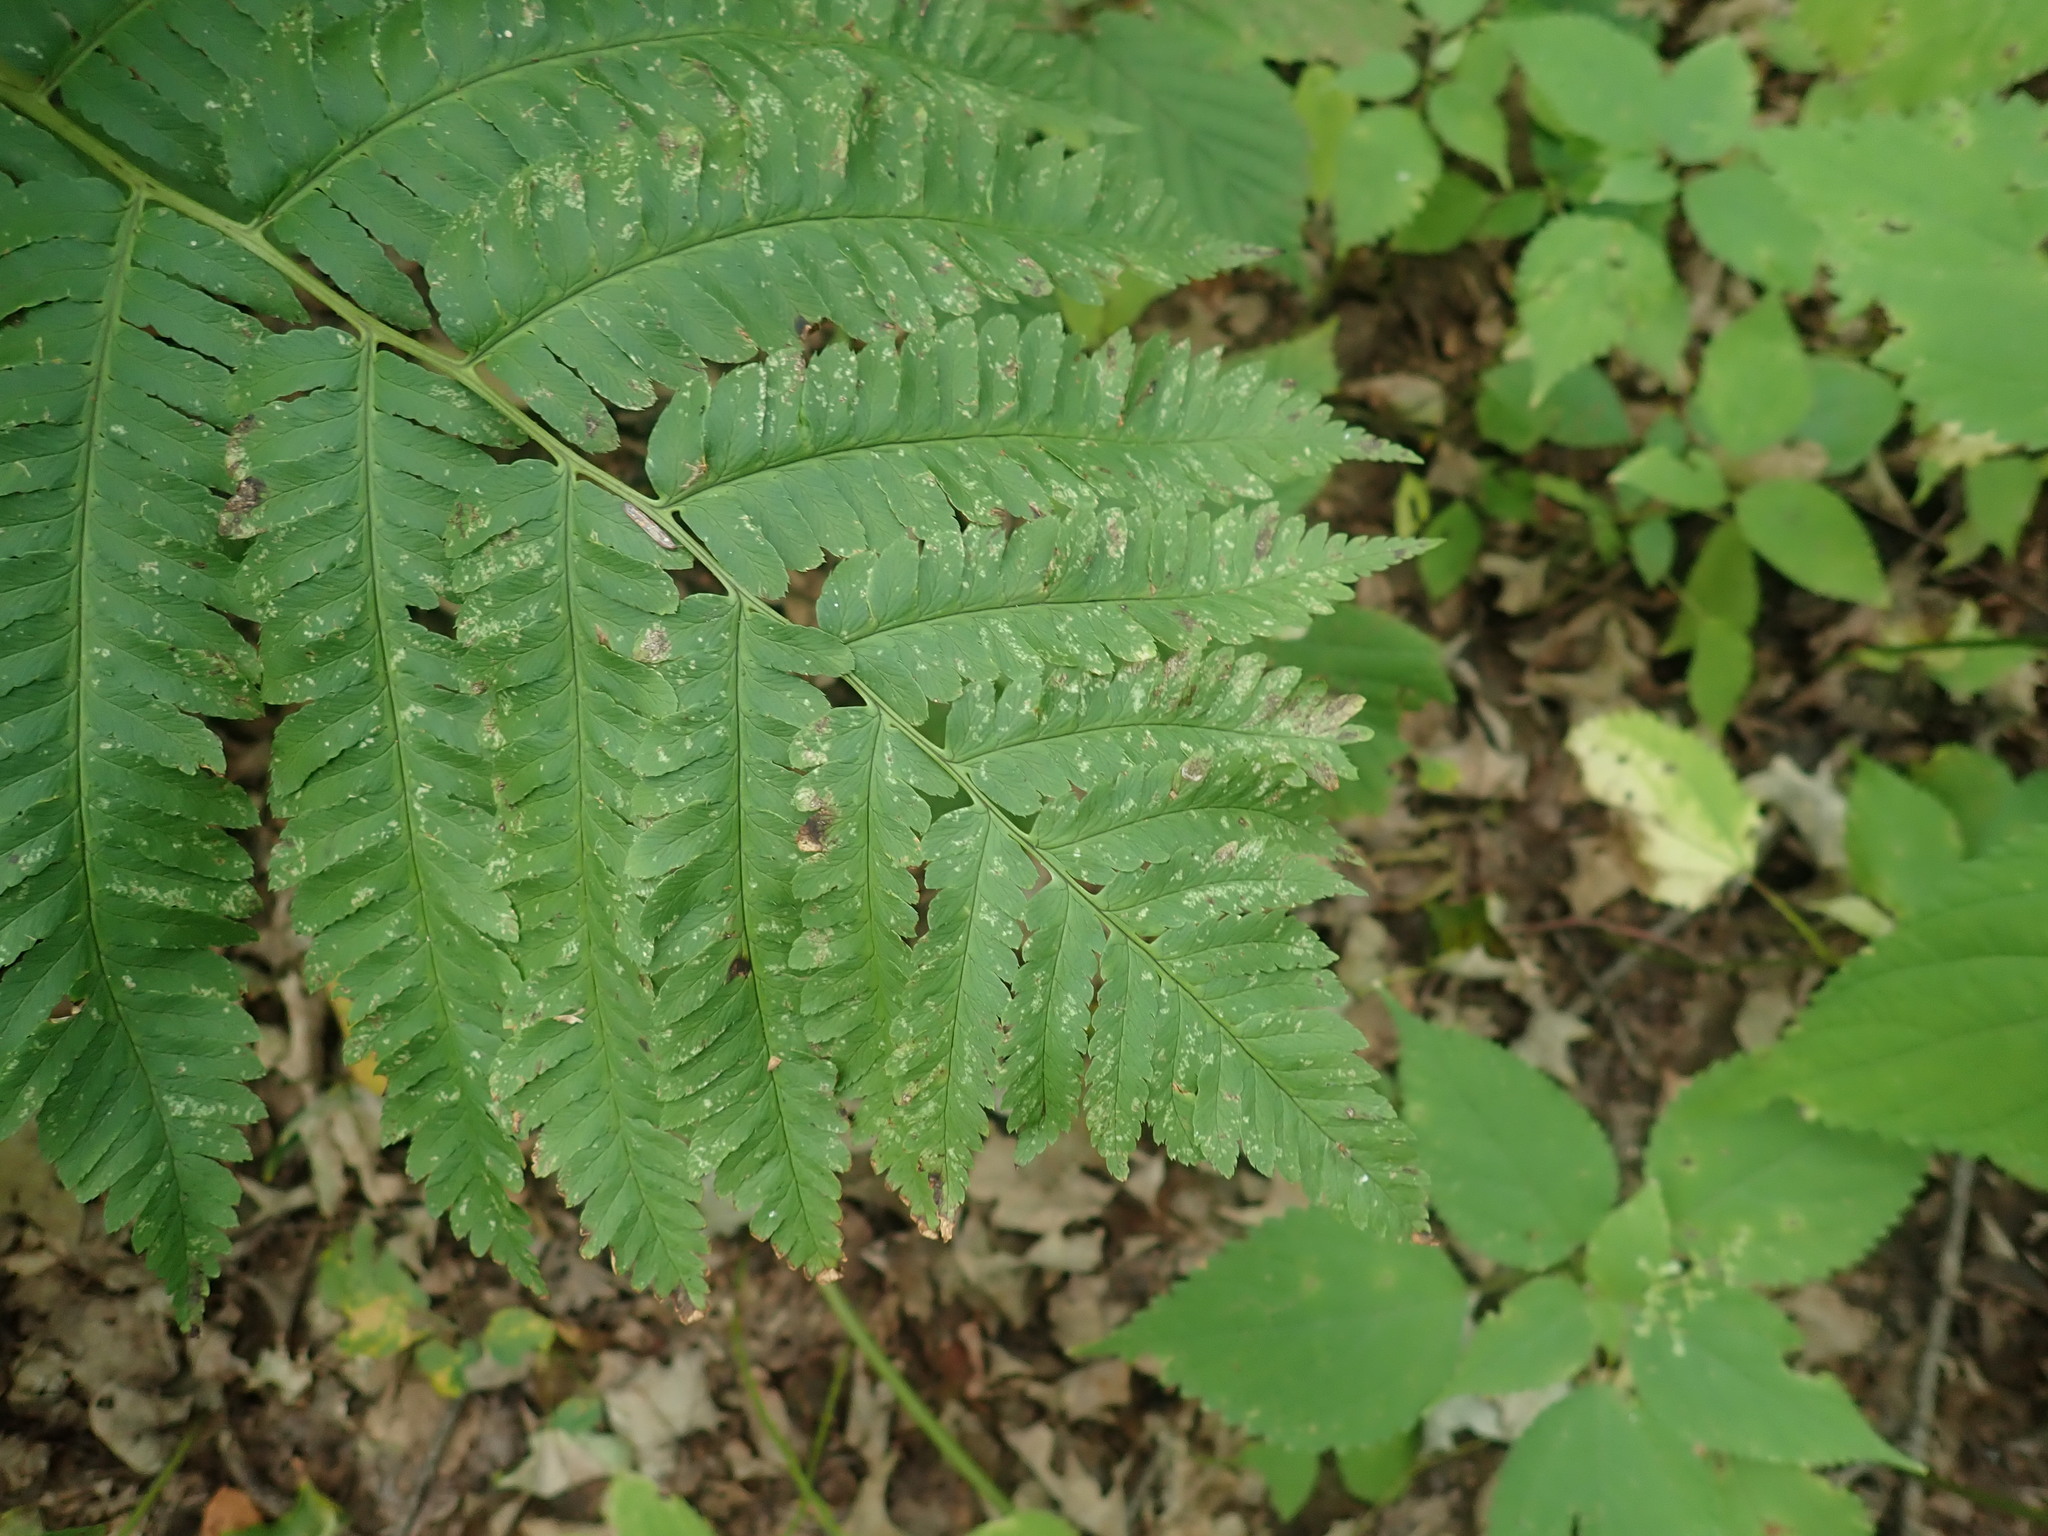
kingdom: Plantae
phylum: Tracheophyta
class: Polypodiopsida
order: Polypodiales
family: Dryopteridaceae
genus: Dryopteris
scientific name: Dryopteris goldieana
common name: Goldie's fern
